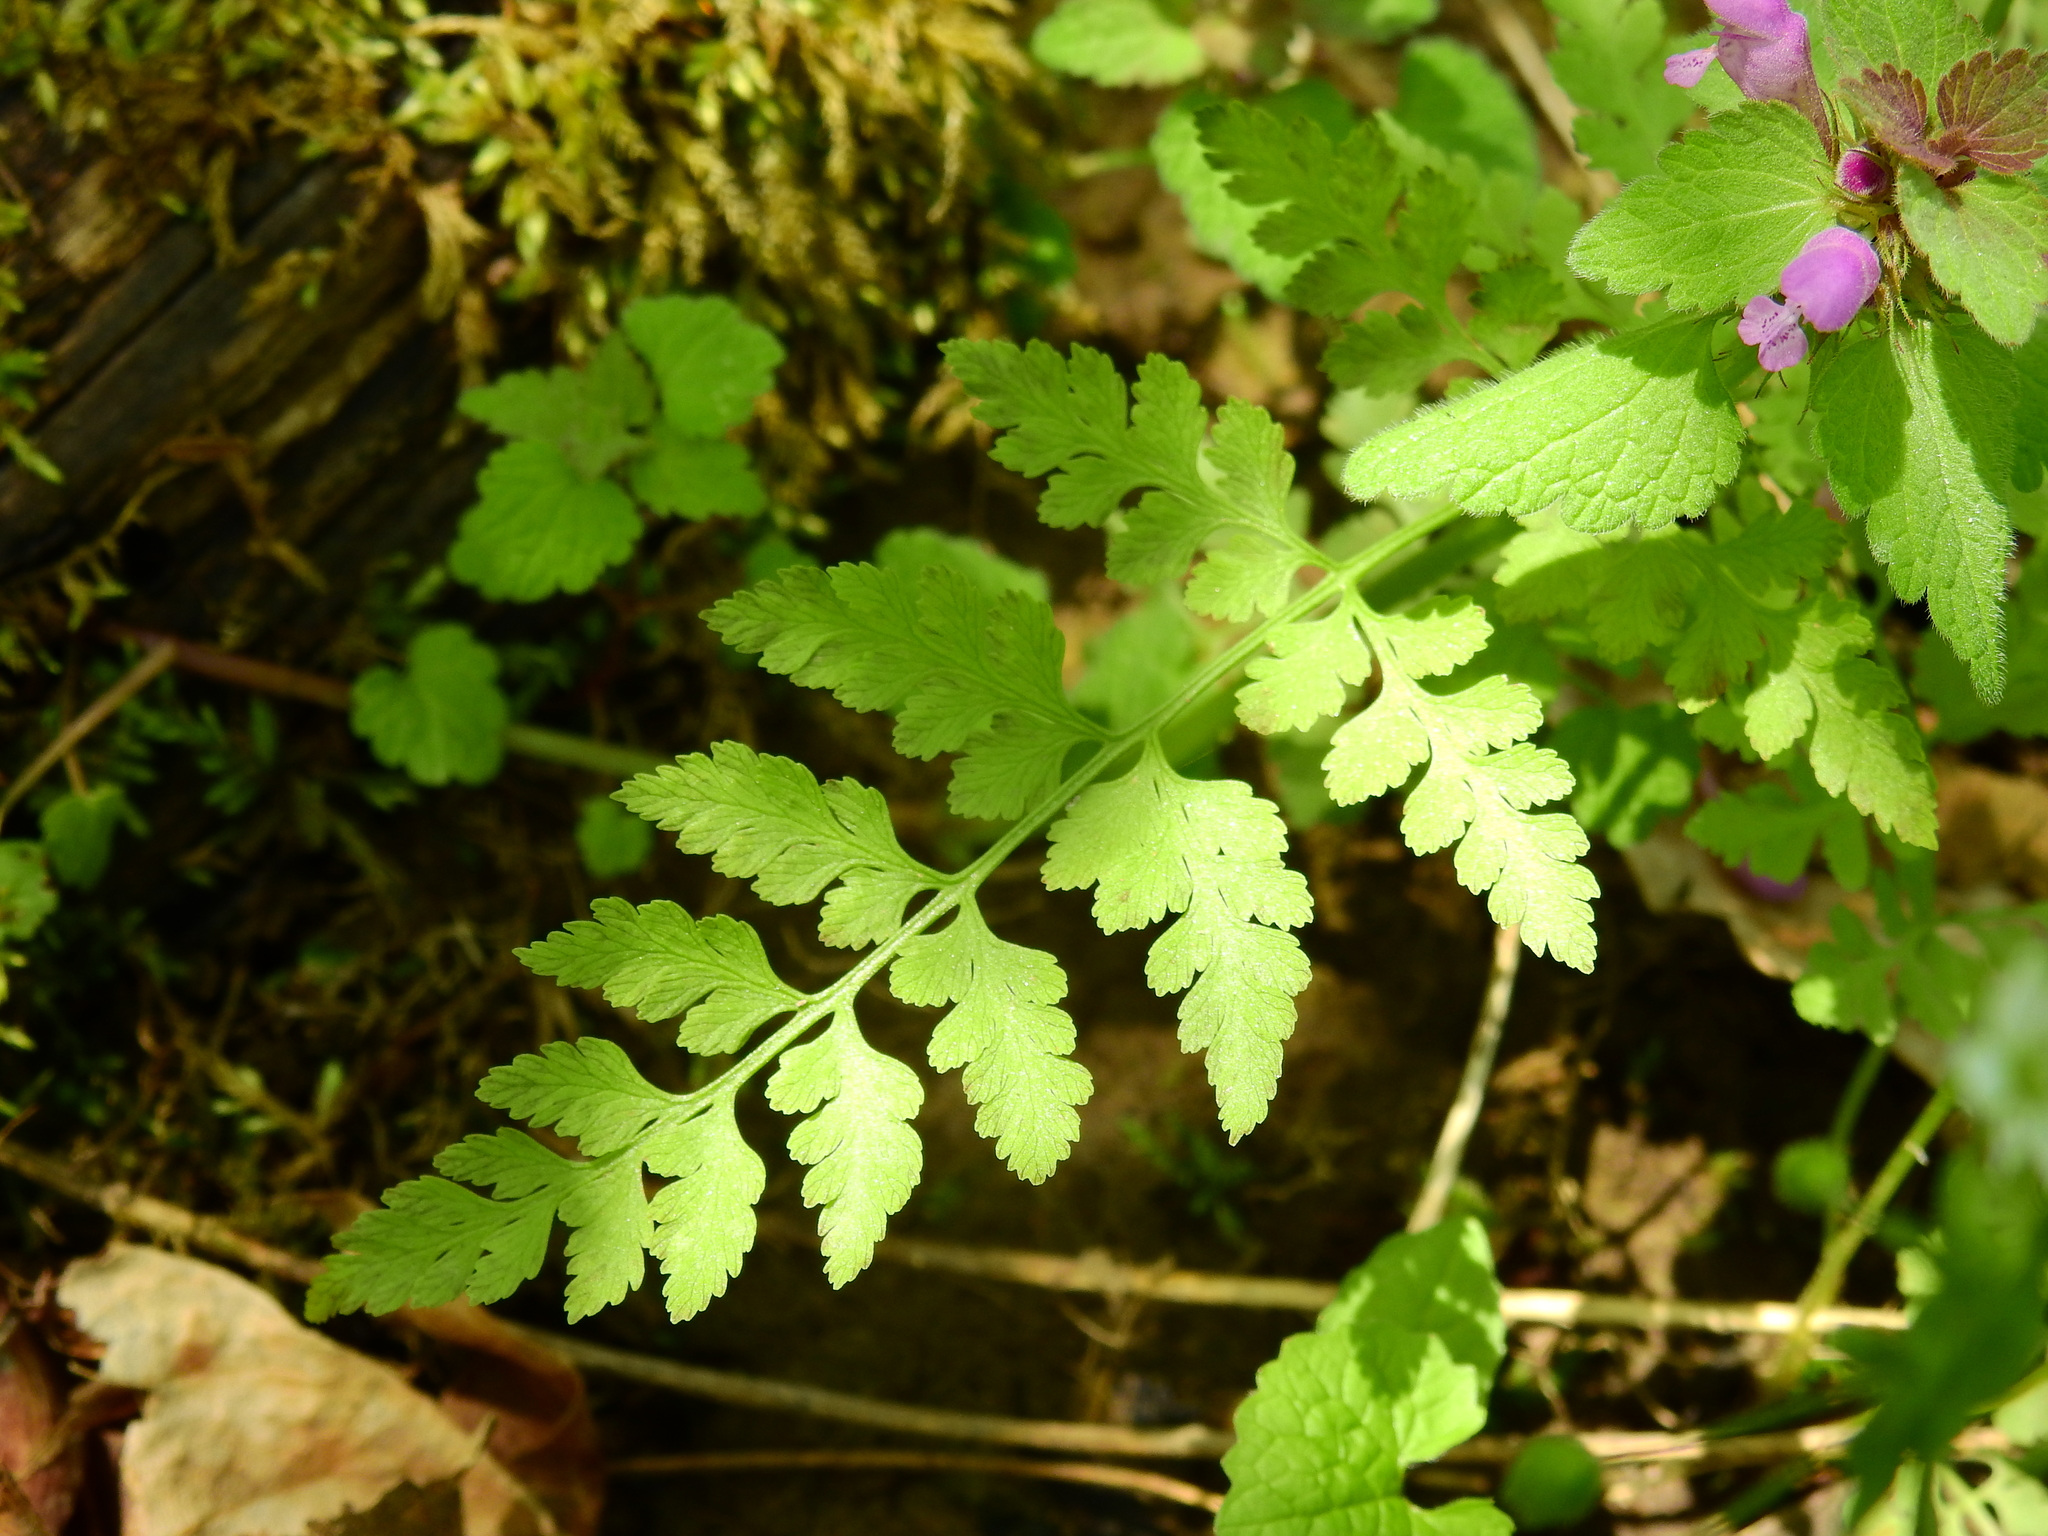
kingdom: Plantae
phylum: Tracheophyta
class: Polypodiopsida
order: Polypodiales
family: Cystopteridaceae
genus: Cystopteris
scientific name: Cystopteris protrusa
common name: Lowland brittle fern
